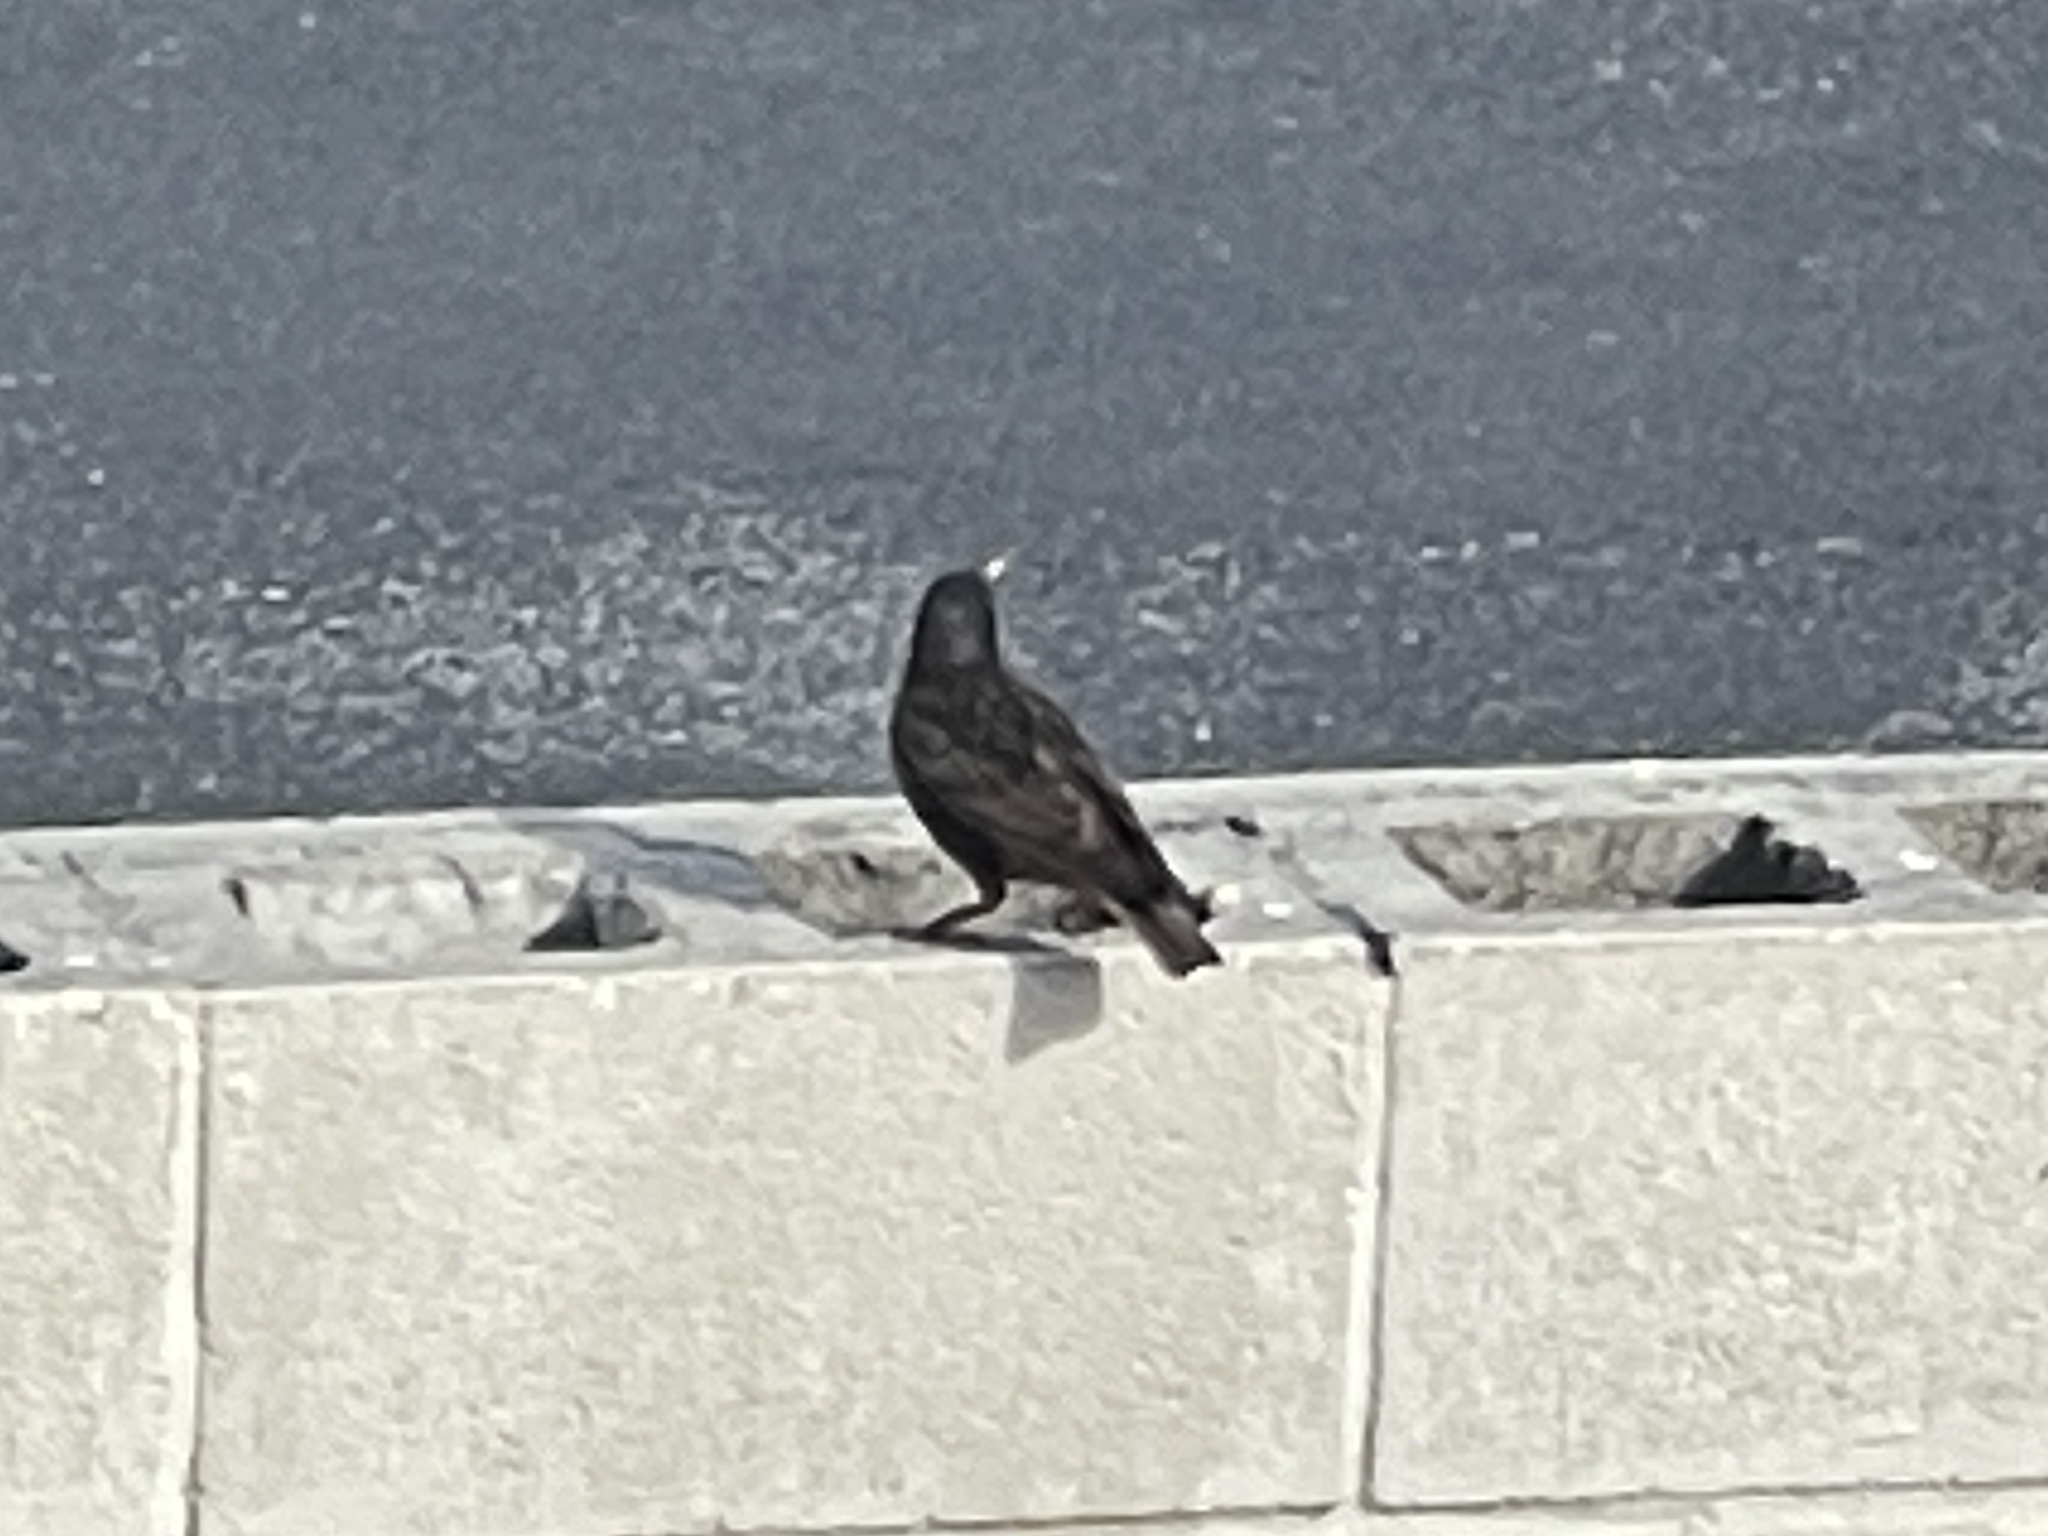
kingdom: Animalia
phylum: Chordata
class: Aves
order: Passeriformes
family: Sturnidae
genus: Sturnus
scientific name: Sturnus vulgaris
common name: Common starling
